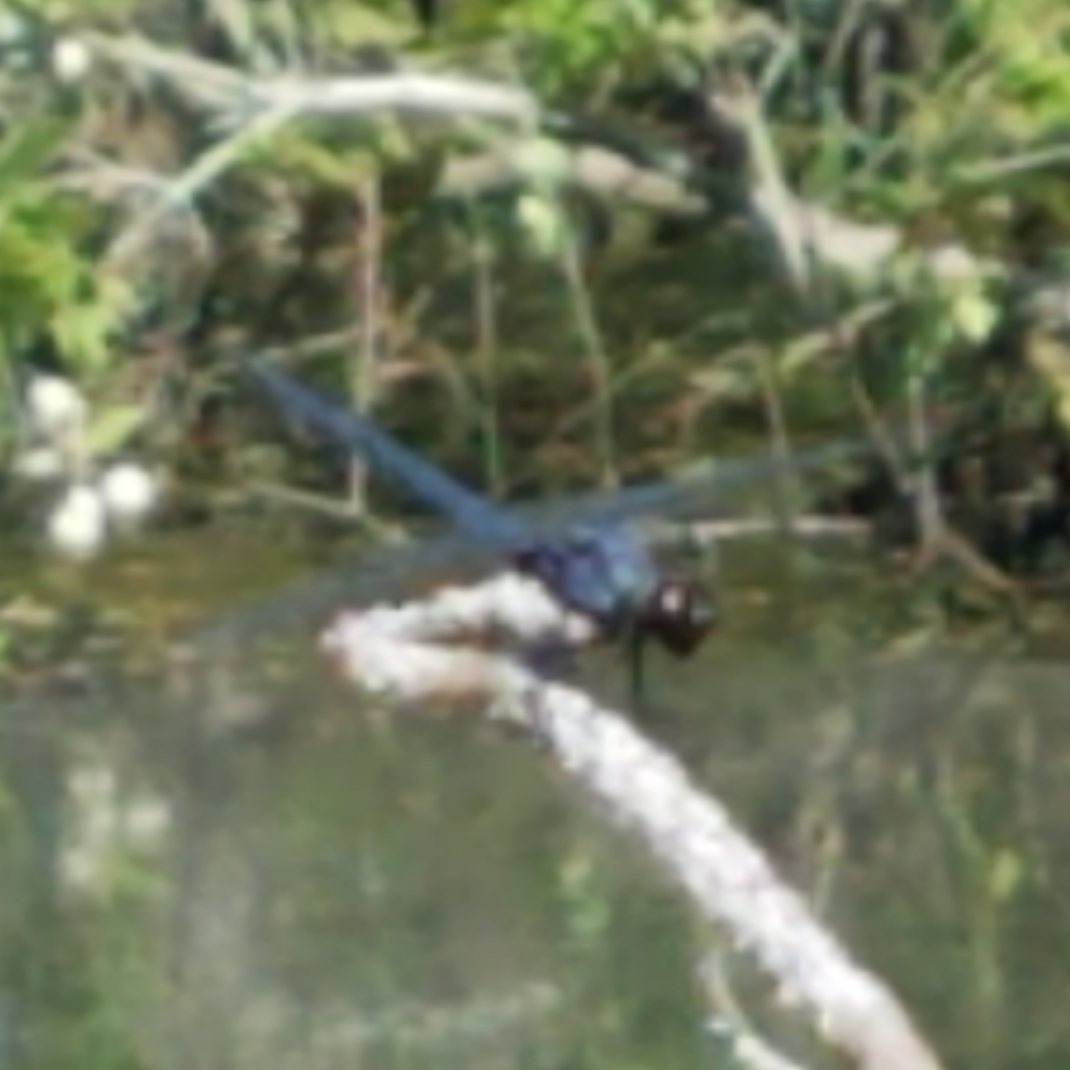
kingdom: Animalia
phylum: Arthropoda
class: Insecta
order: Odonata
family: Libellulidae
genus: Libellula
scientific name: Libellula incesta
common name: Slaty skimmer
